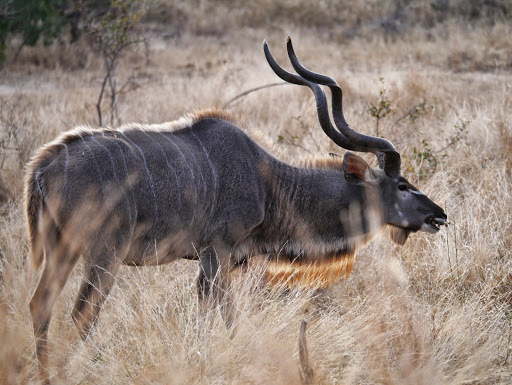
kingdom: Animalia
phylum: Chordata
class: Mammalia
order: Artiodactyla
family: Bovidae
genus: Tragelaphus
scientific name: Tragelaphus strepsiceros
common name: Greater kudu
